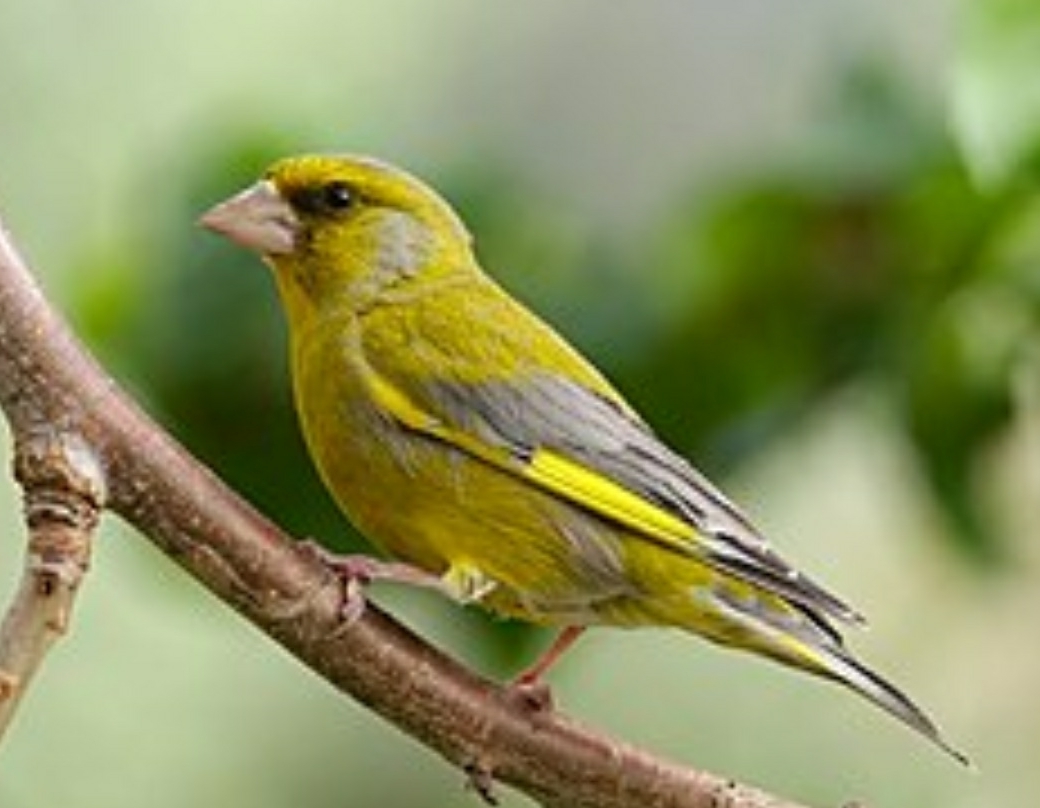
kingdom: Plantae
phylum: Tracheophyta
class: Liliopsida
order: Poales
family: Poaceae
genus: Chloris
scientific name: Chloris chloris
